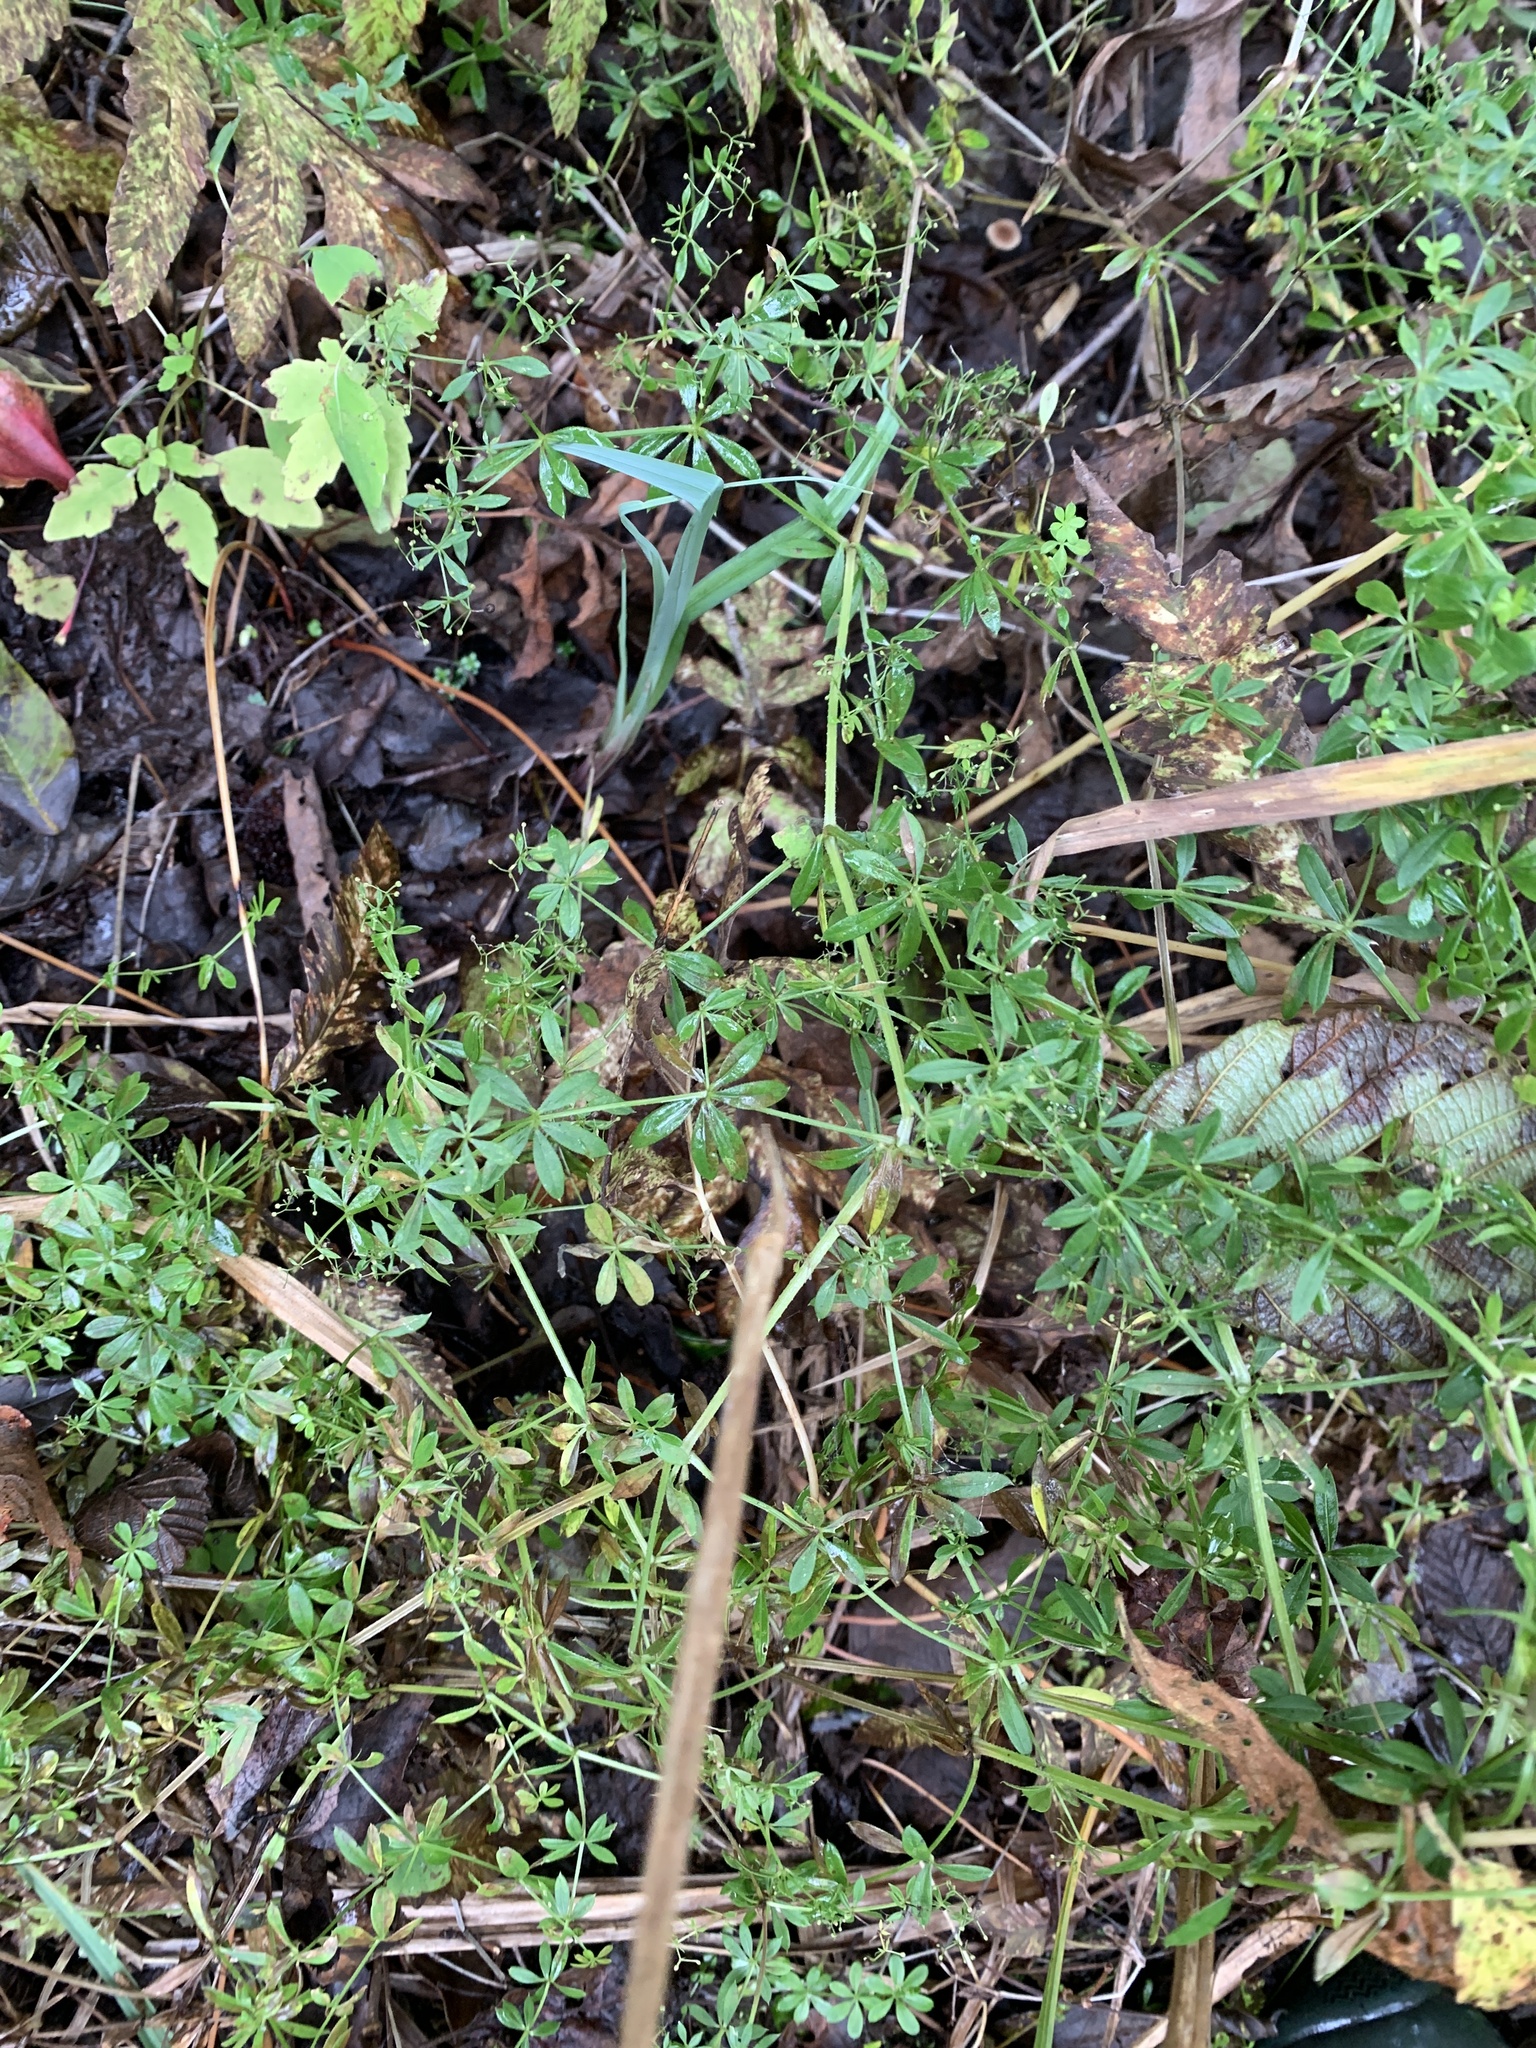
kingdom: Plantae
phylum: Tracheophyta
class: Magnoliopsida
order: Gentianales
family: Rubiaceae
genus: Galium
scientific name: Galium asprellum
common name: Rough bedstraw
